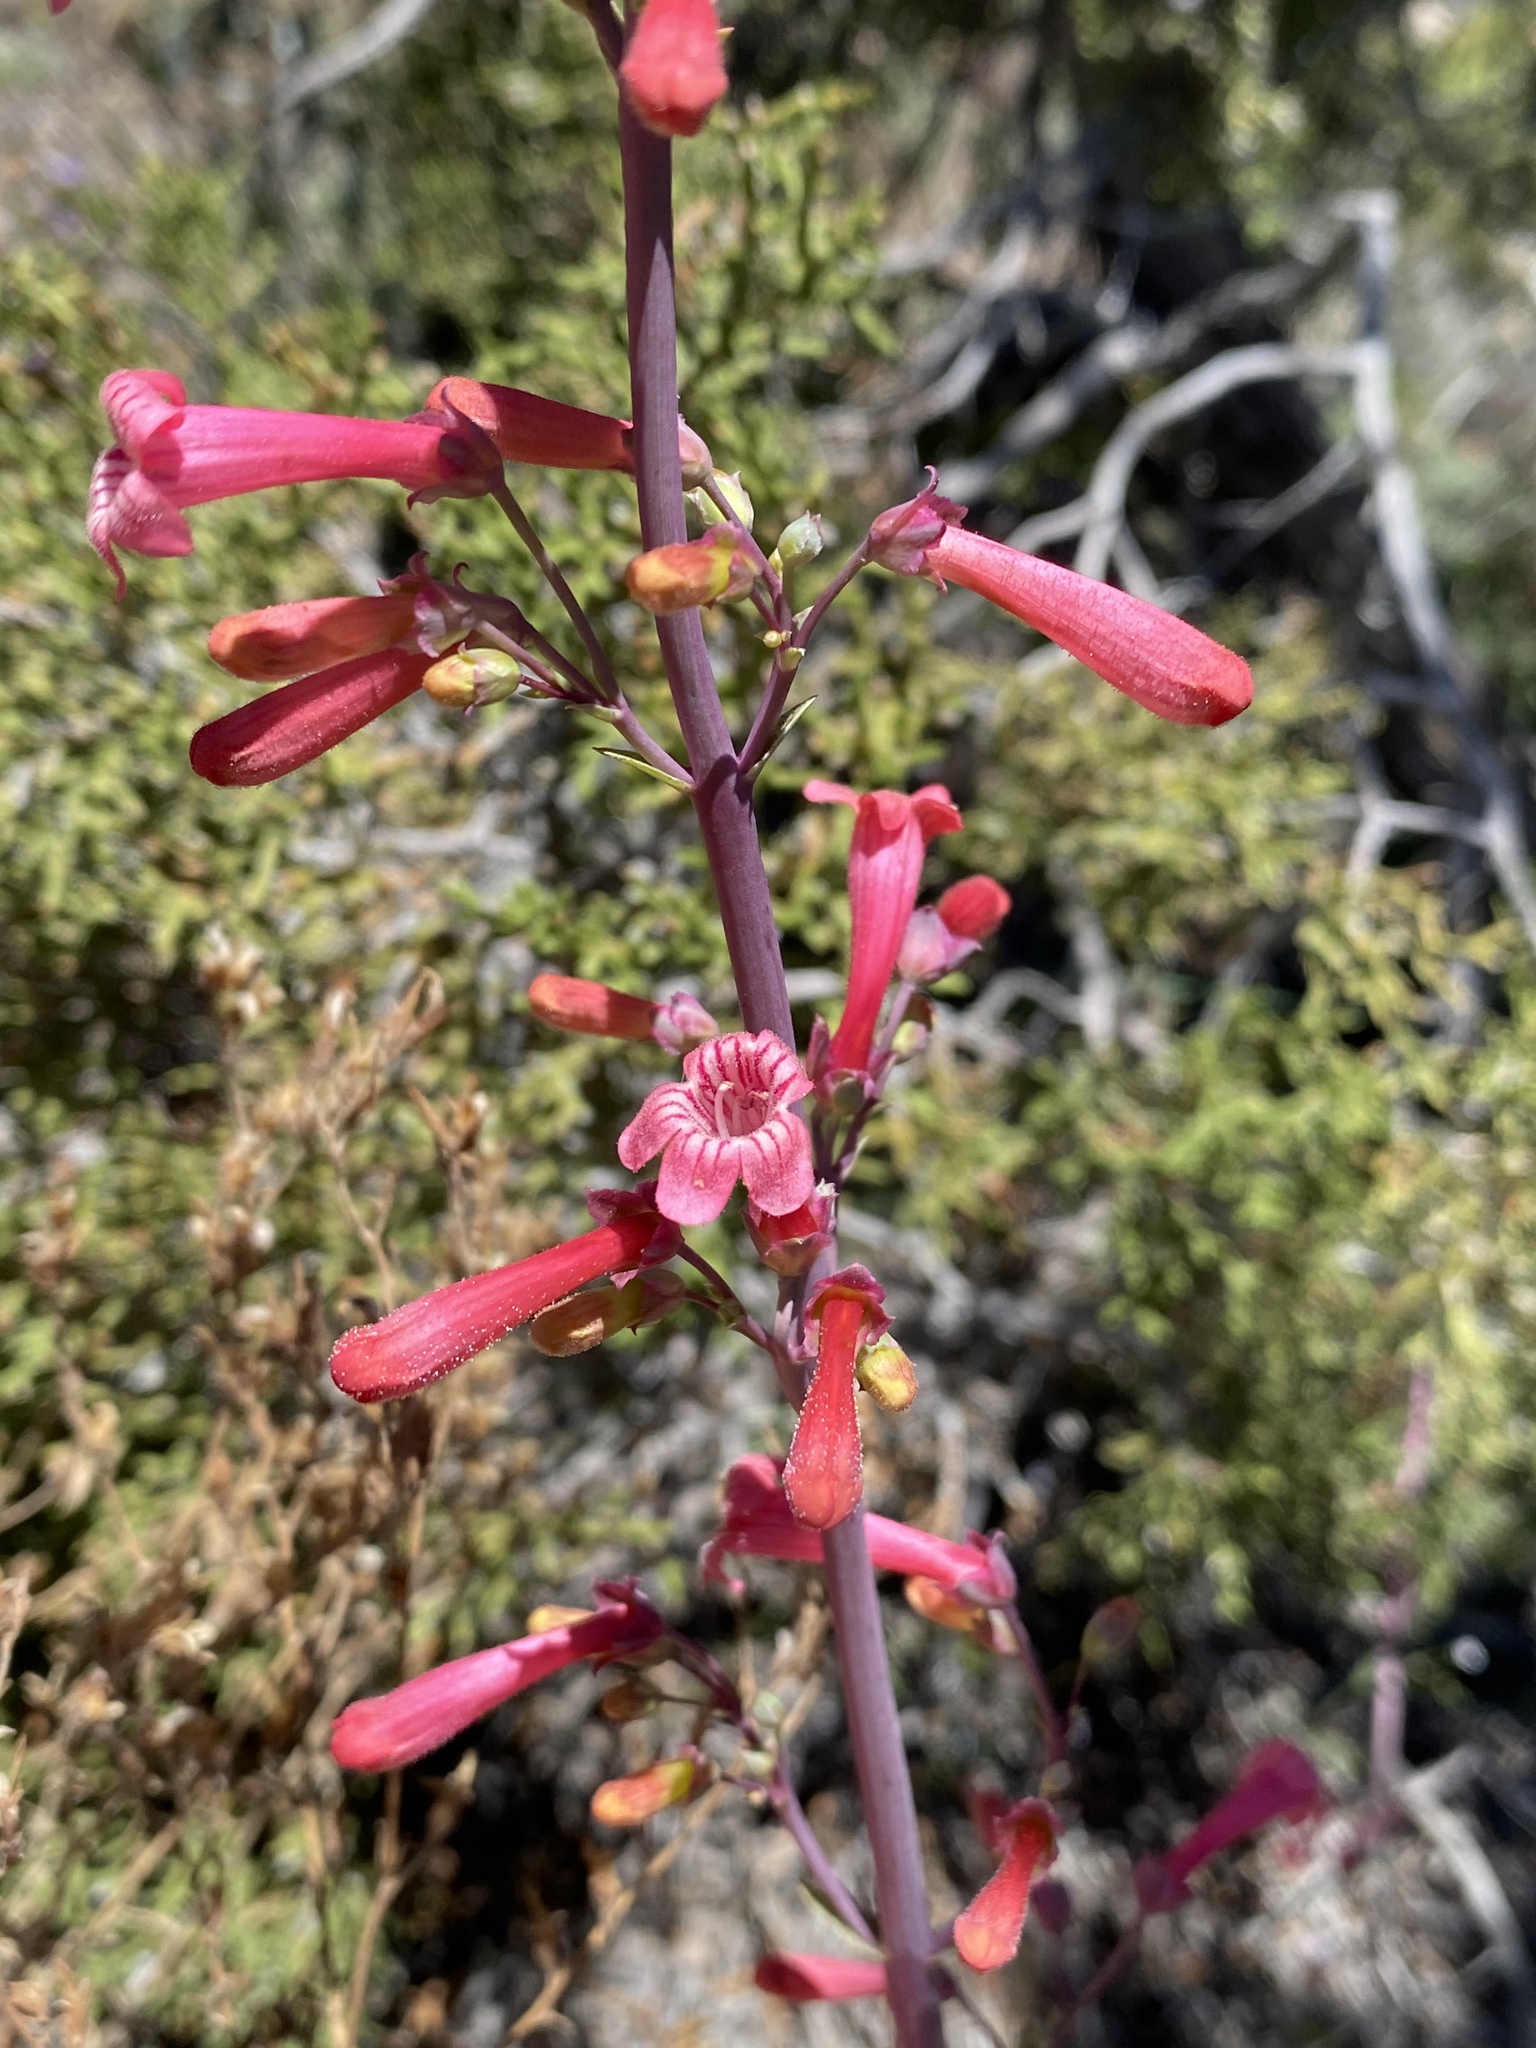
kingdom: Plantae
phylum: Tracheophyta
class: Magnoliopsida
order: Lamiales
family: Plantaginaceae
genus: Penstemon
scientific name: Penstemon utahensis
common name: Utah penstemon
